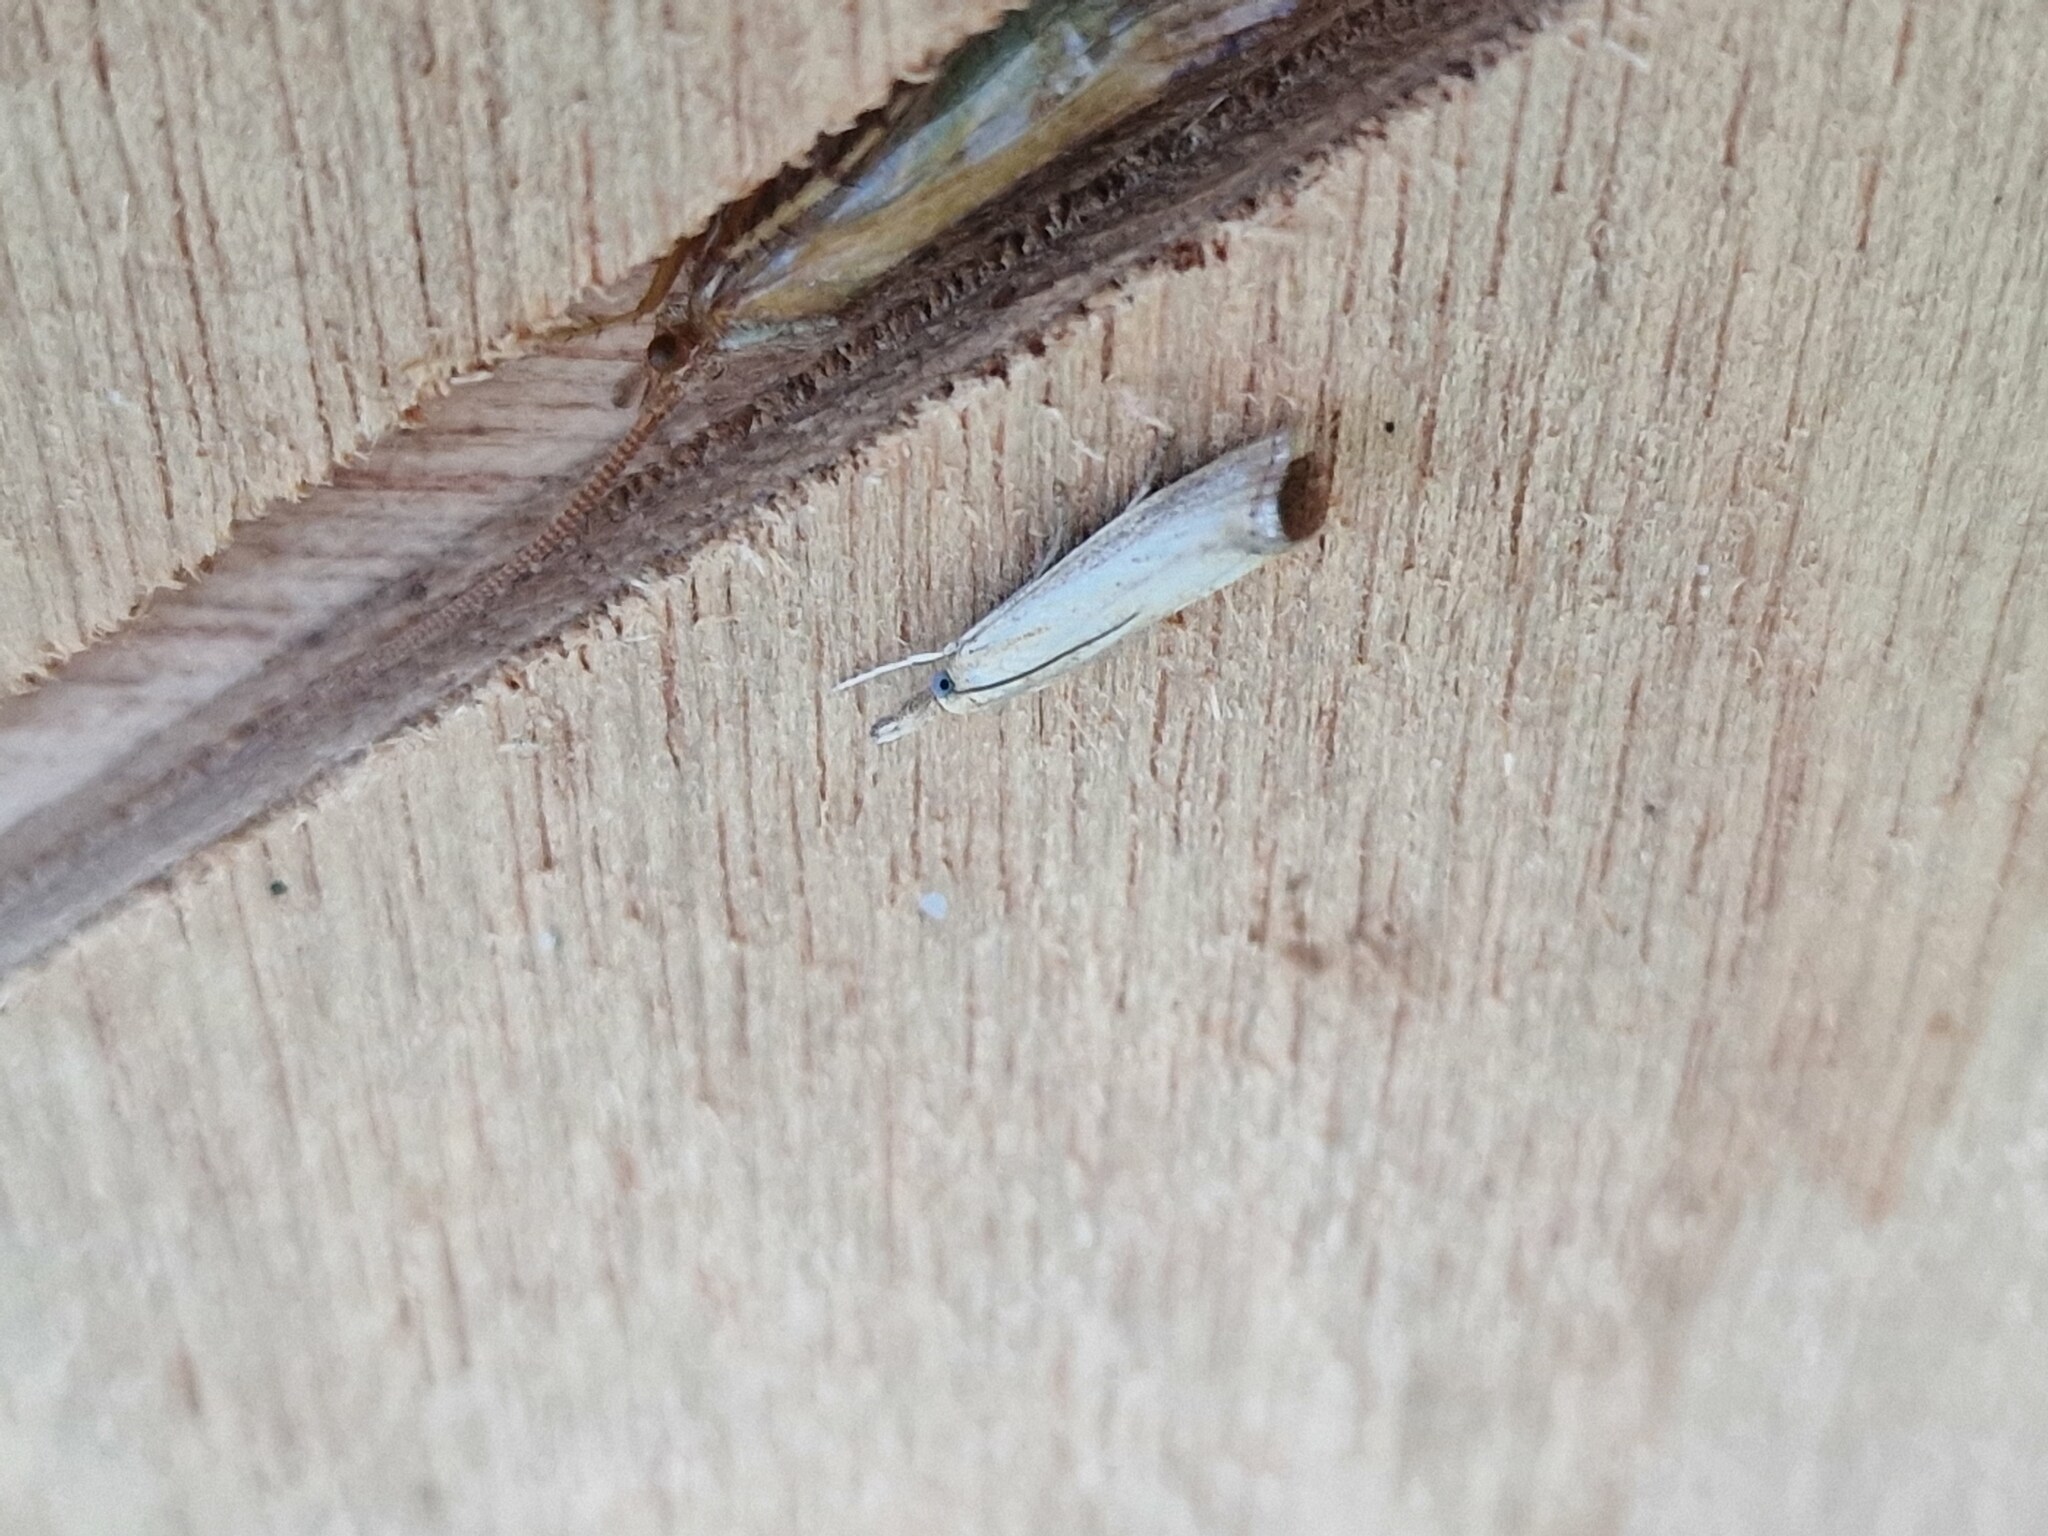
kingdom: Animalia
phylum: Arthropoda
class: Insecta
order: Lepidoptera
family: Crambidae
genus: Agriphila
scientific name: Agriphila straminella
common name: Straw grass-veneer
